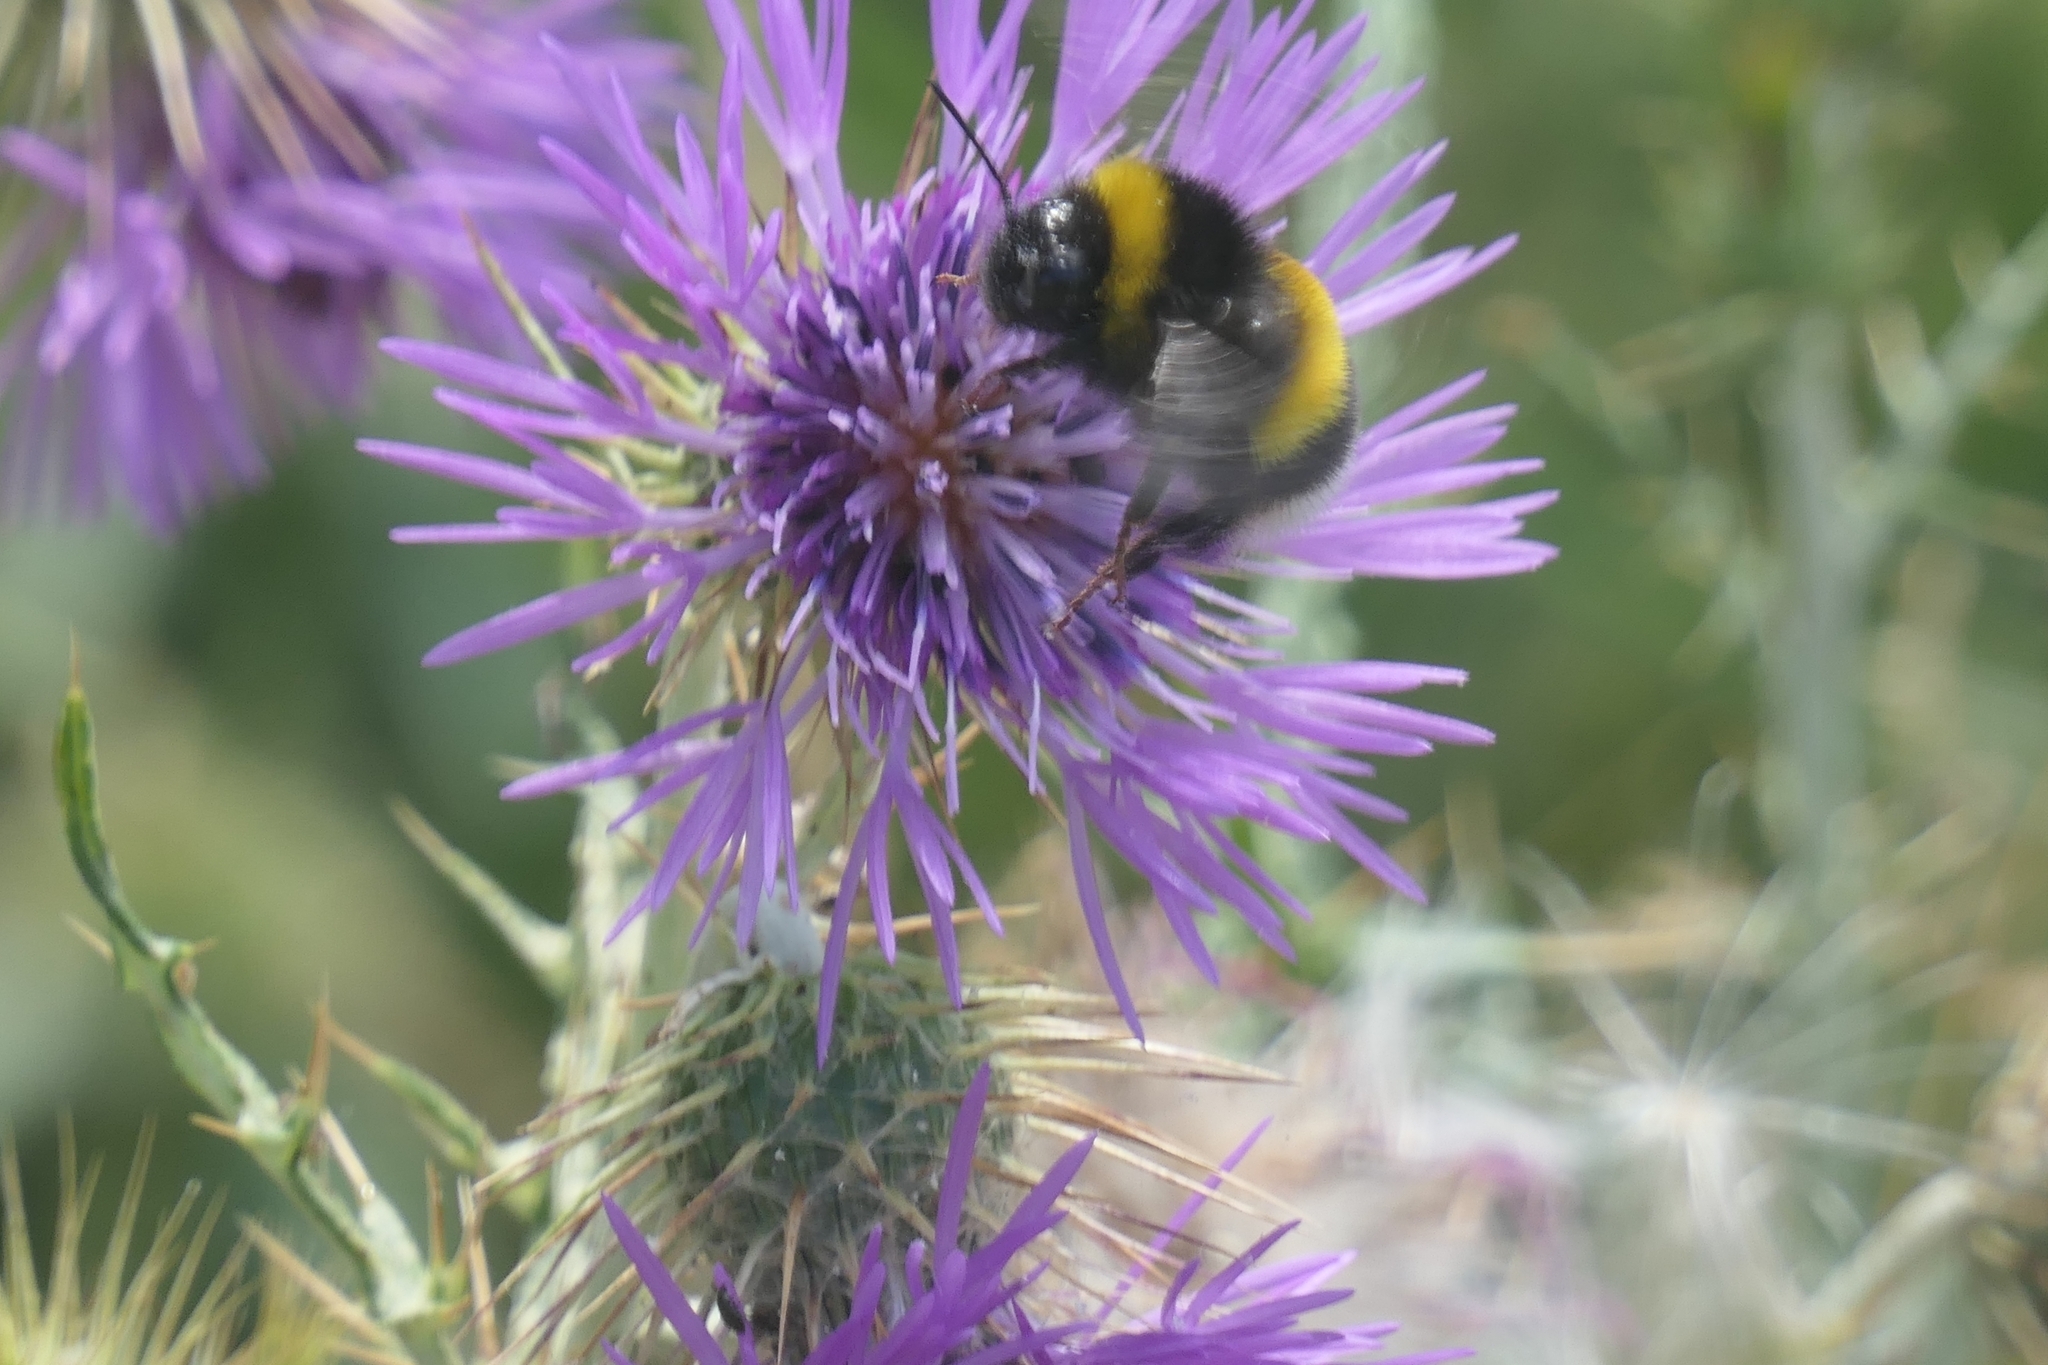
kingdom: Animalia
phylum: Arthropoda
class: Insecta
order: Hymenoptera
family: Apidae
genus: Bombus
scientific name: Bombus terrestris
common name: Buff-tailed bumblebee
